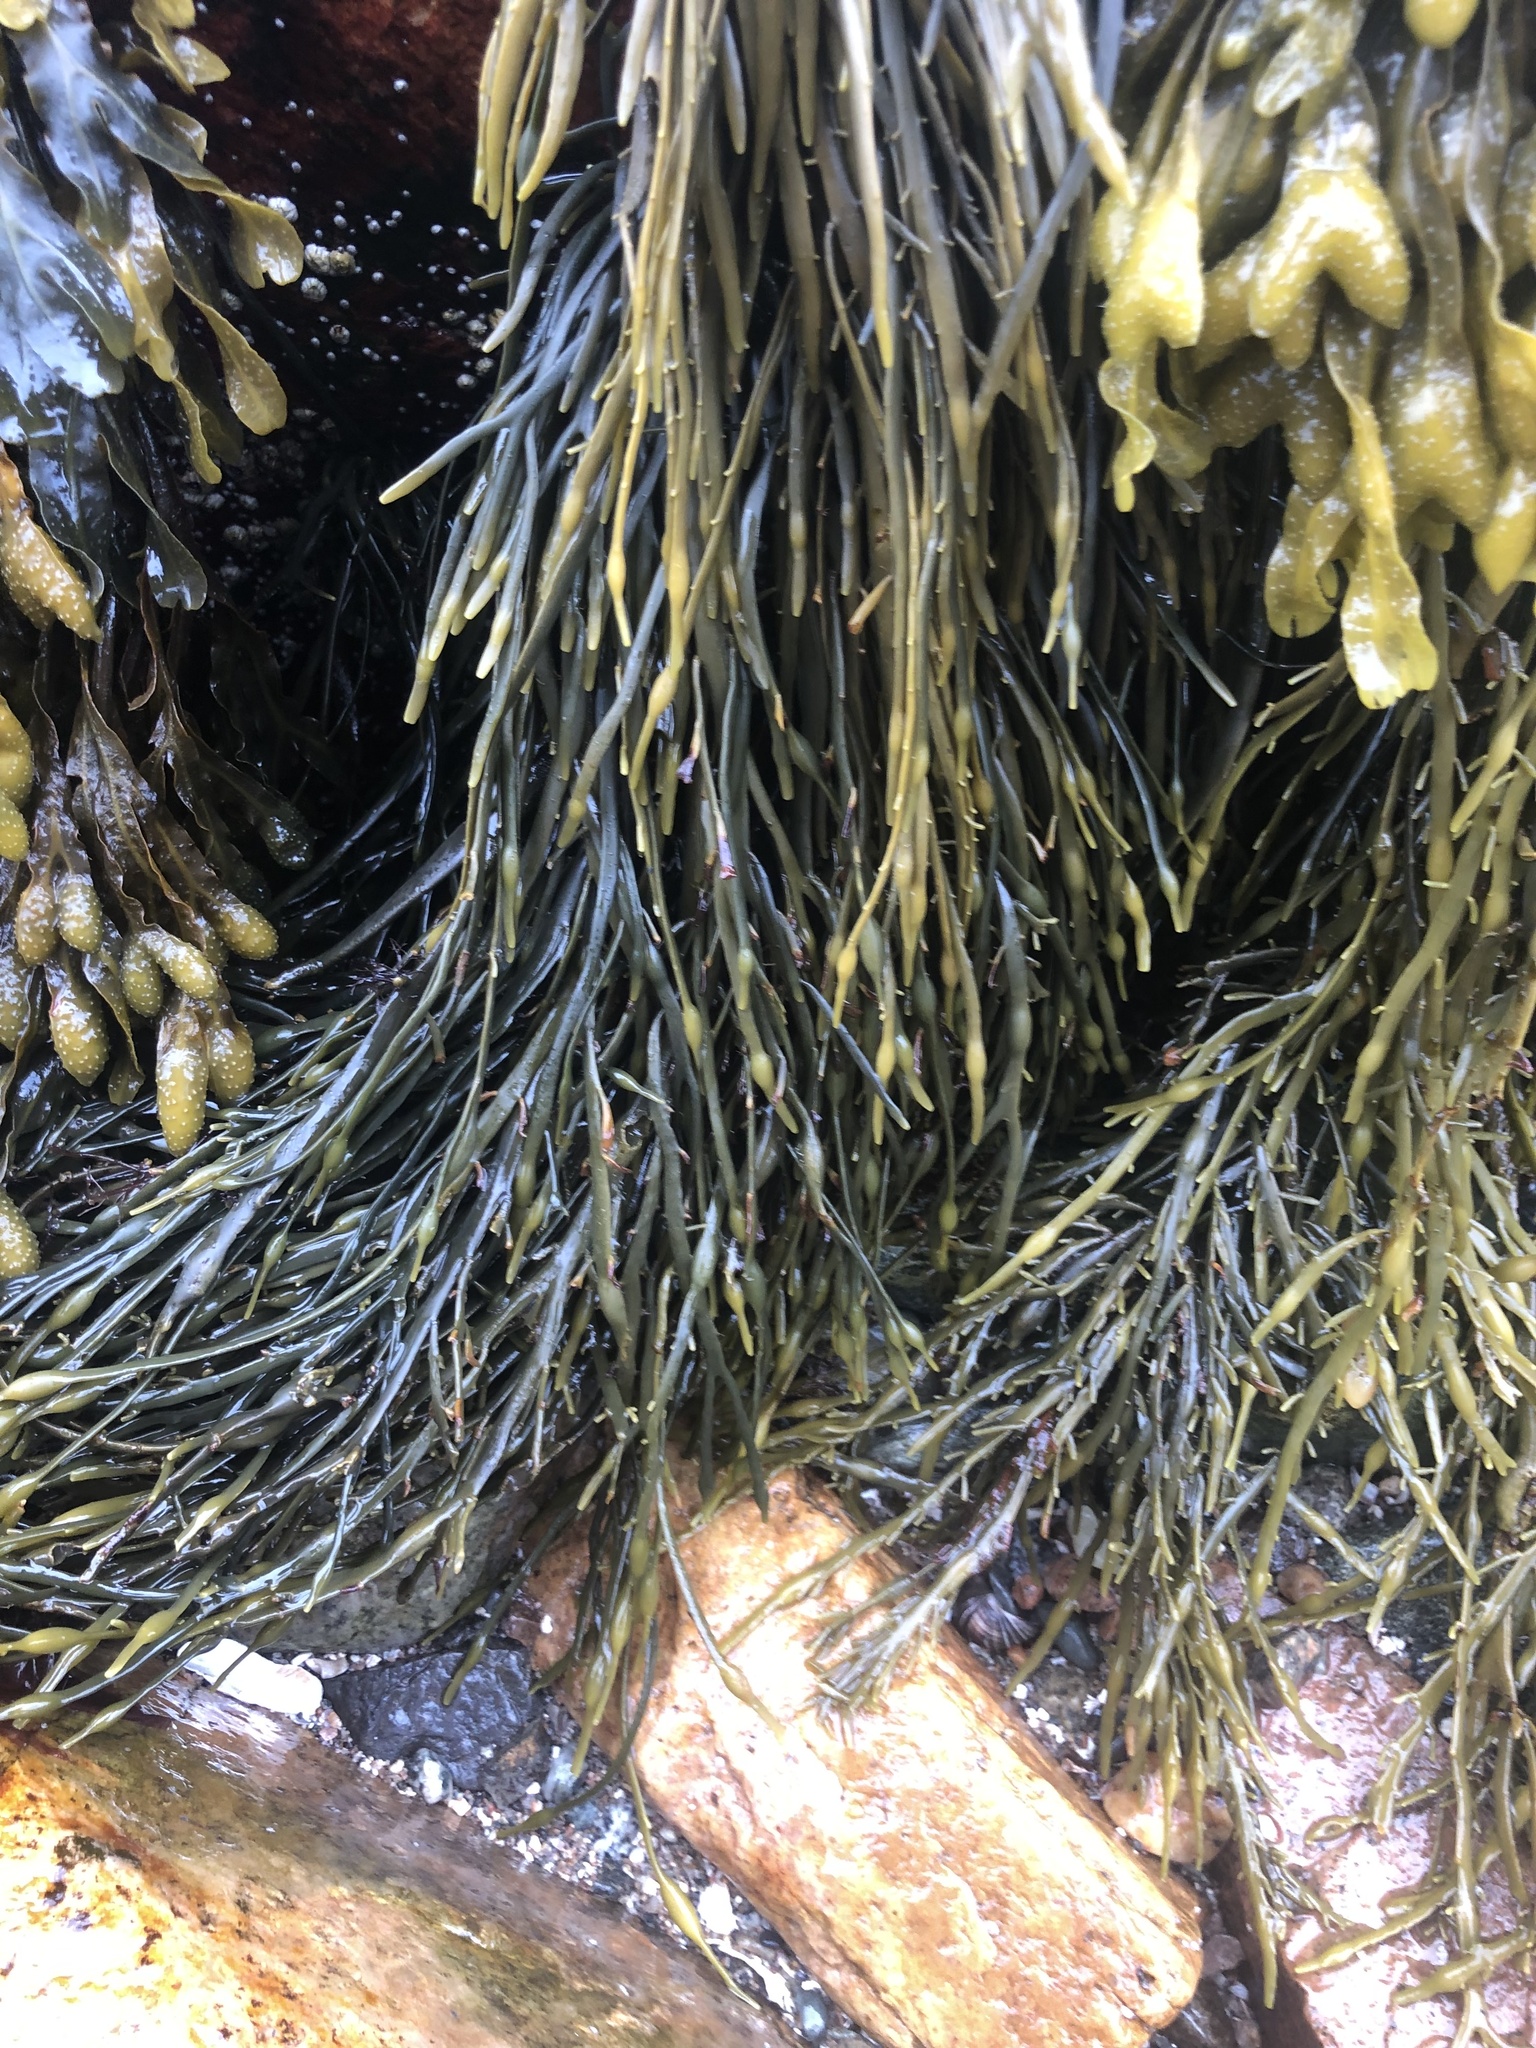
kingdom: Chromista
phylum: Ochrophyta
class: Phaeophyceae
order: Fucales
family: Fucaceae
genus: Ascophyllum
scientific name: Ascophyllum nodosum
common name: Knotted wrack
